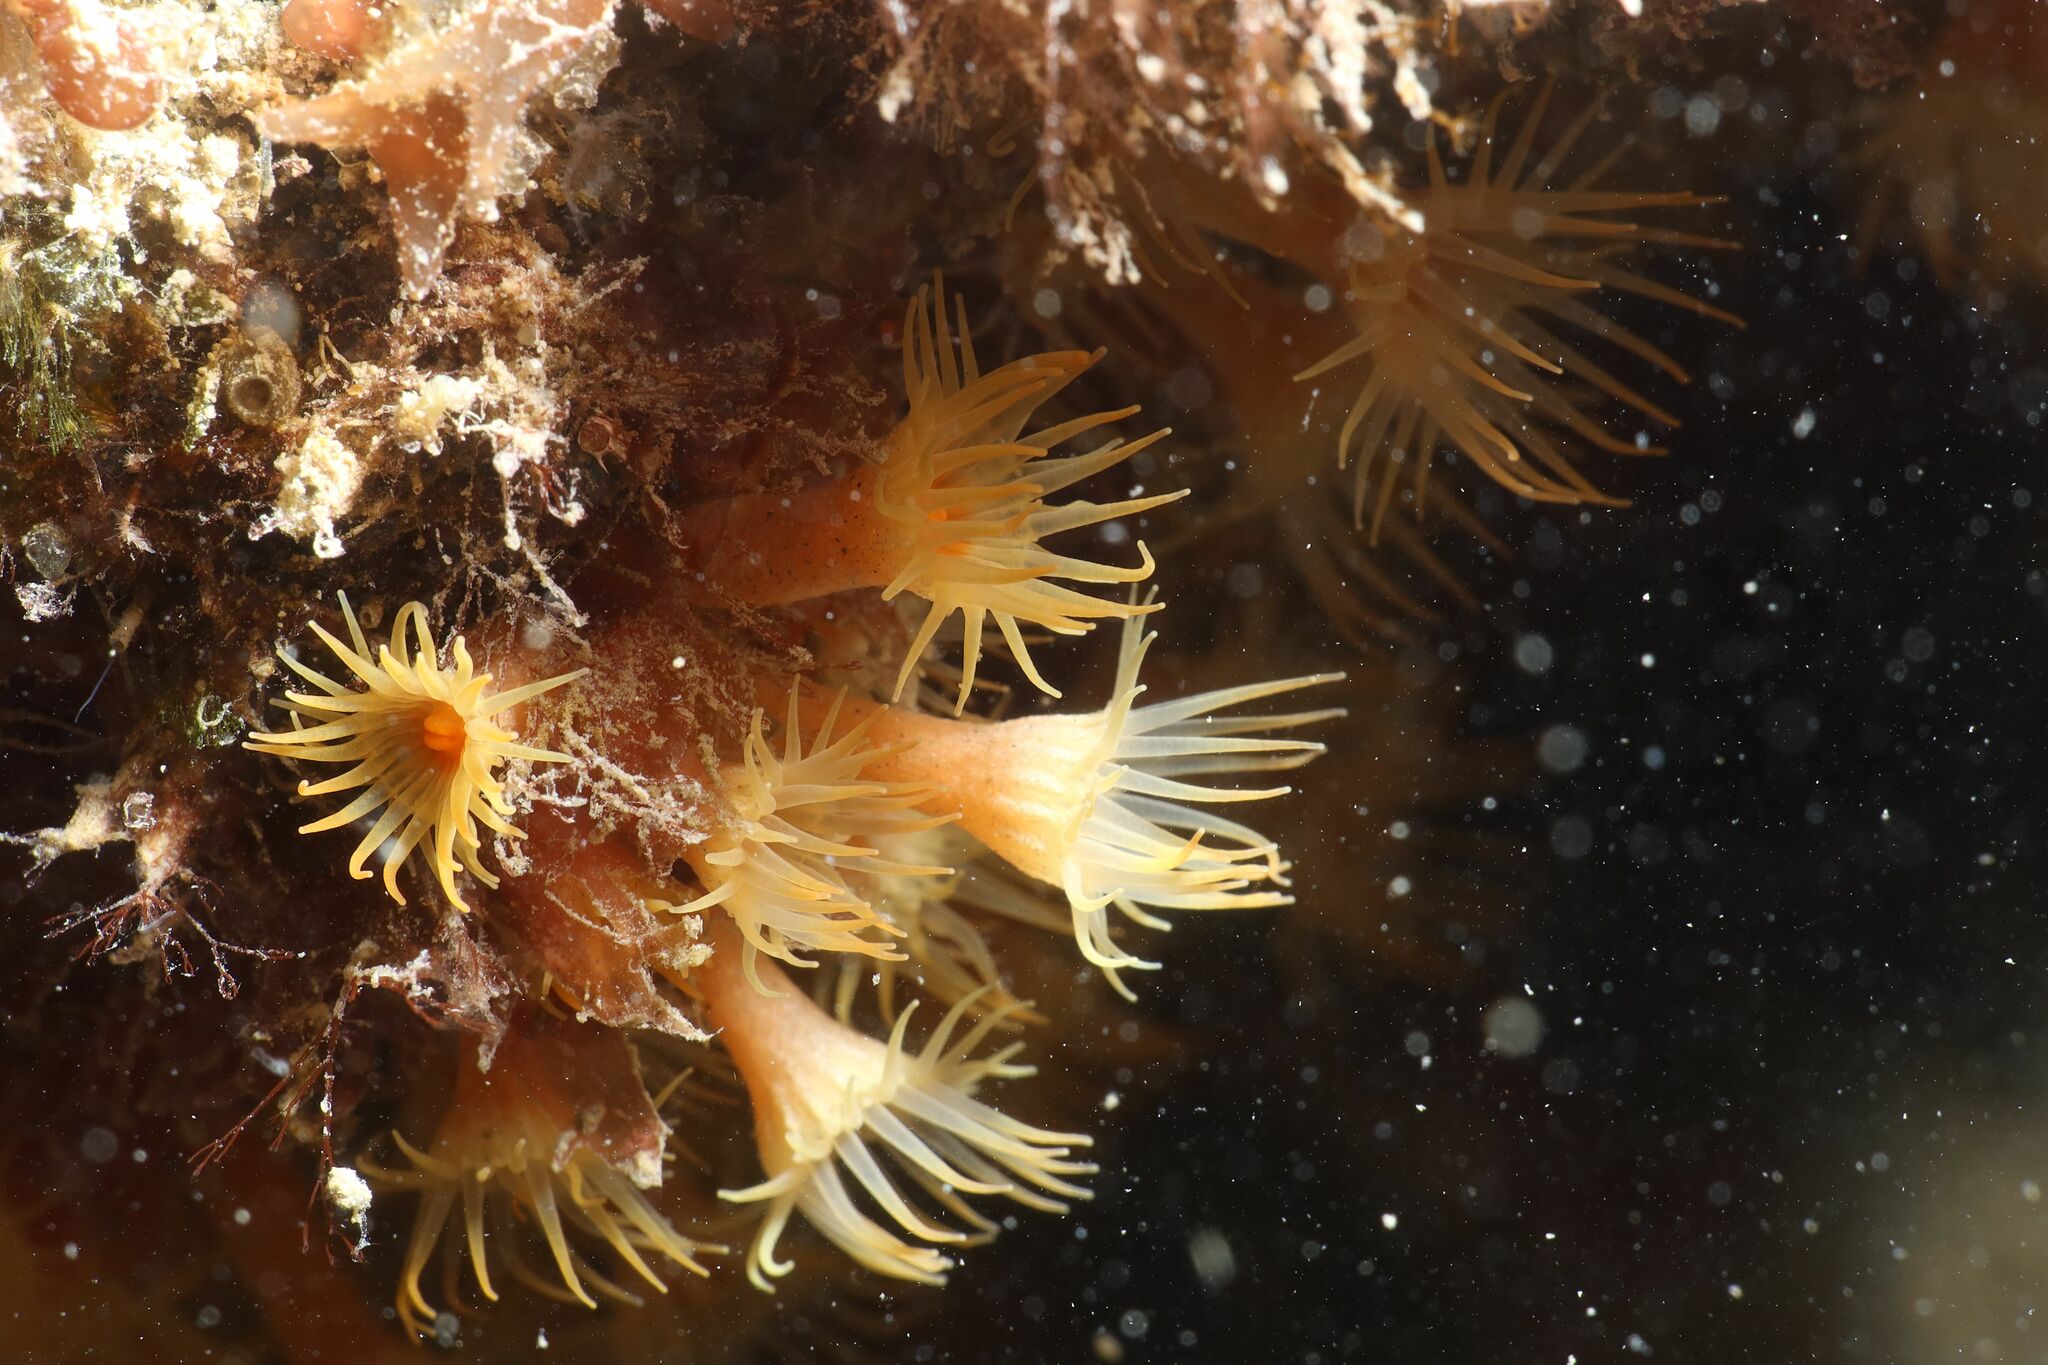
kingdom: Animalia
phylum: Cnidaria
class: Anthozoa
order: Zoantharia
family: Parazoanthidae
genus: Parazoanthus
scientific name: Parazoanthus axinellae
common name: Yellow cluster anemone
